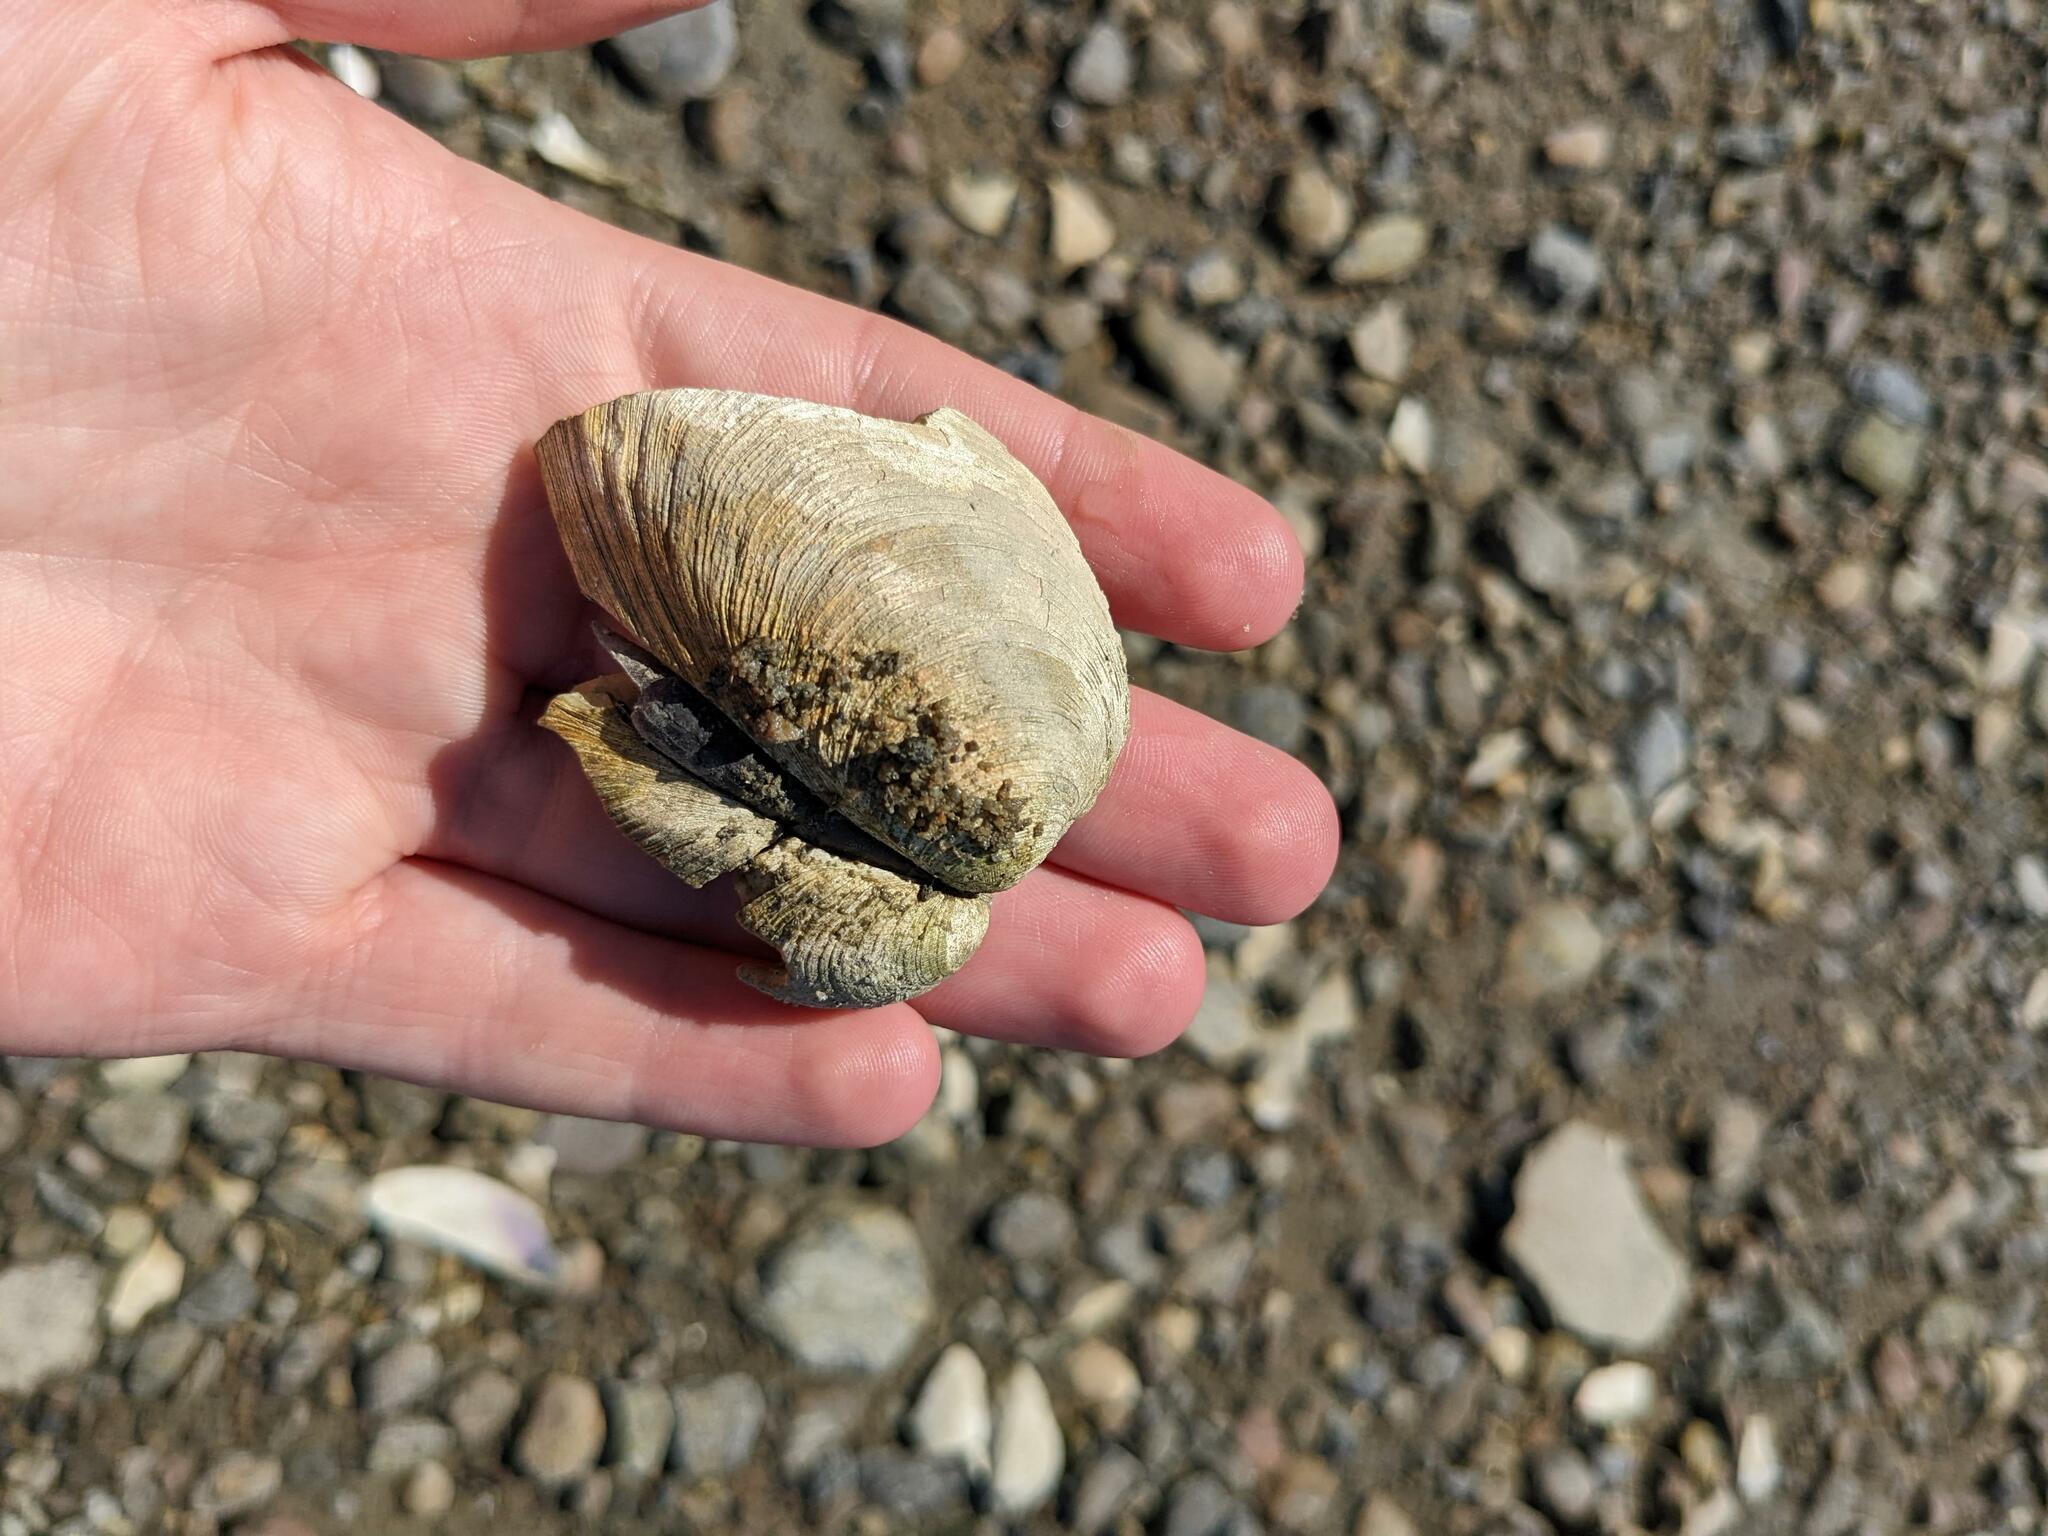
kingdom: Animalia
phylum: Mollusca
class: Bivalvia
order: Venerida
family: Veneridae
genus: Mercenaria
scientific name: Mercenaria mercenaria
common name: American hard-shelled clam
